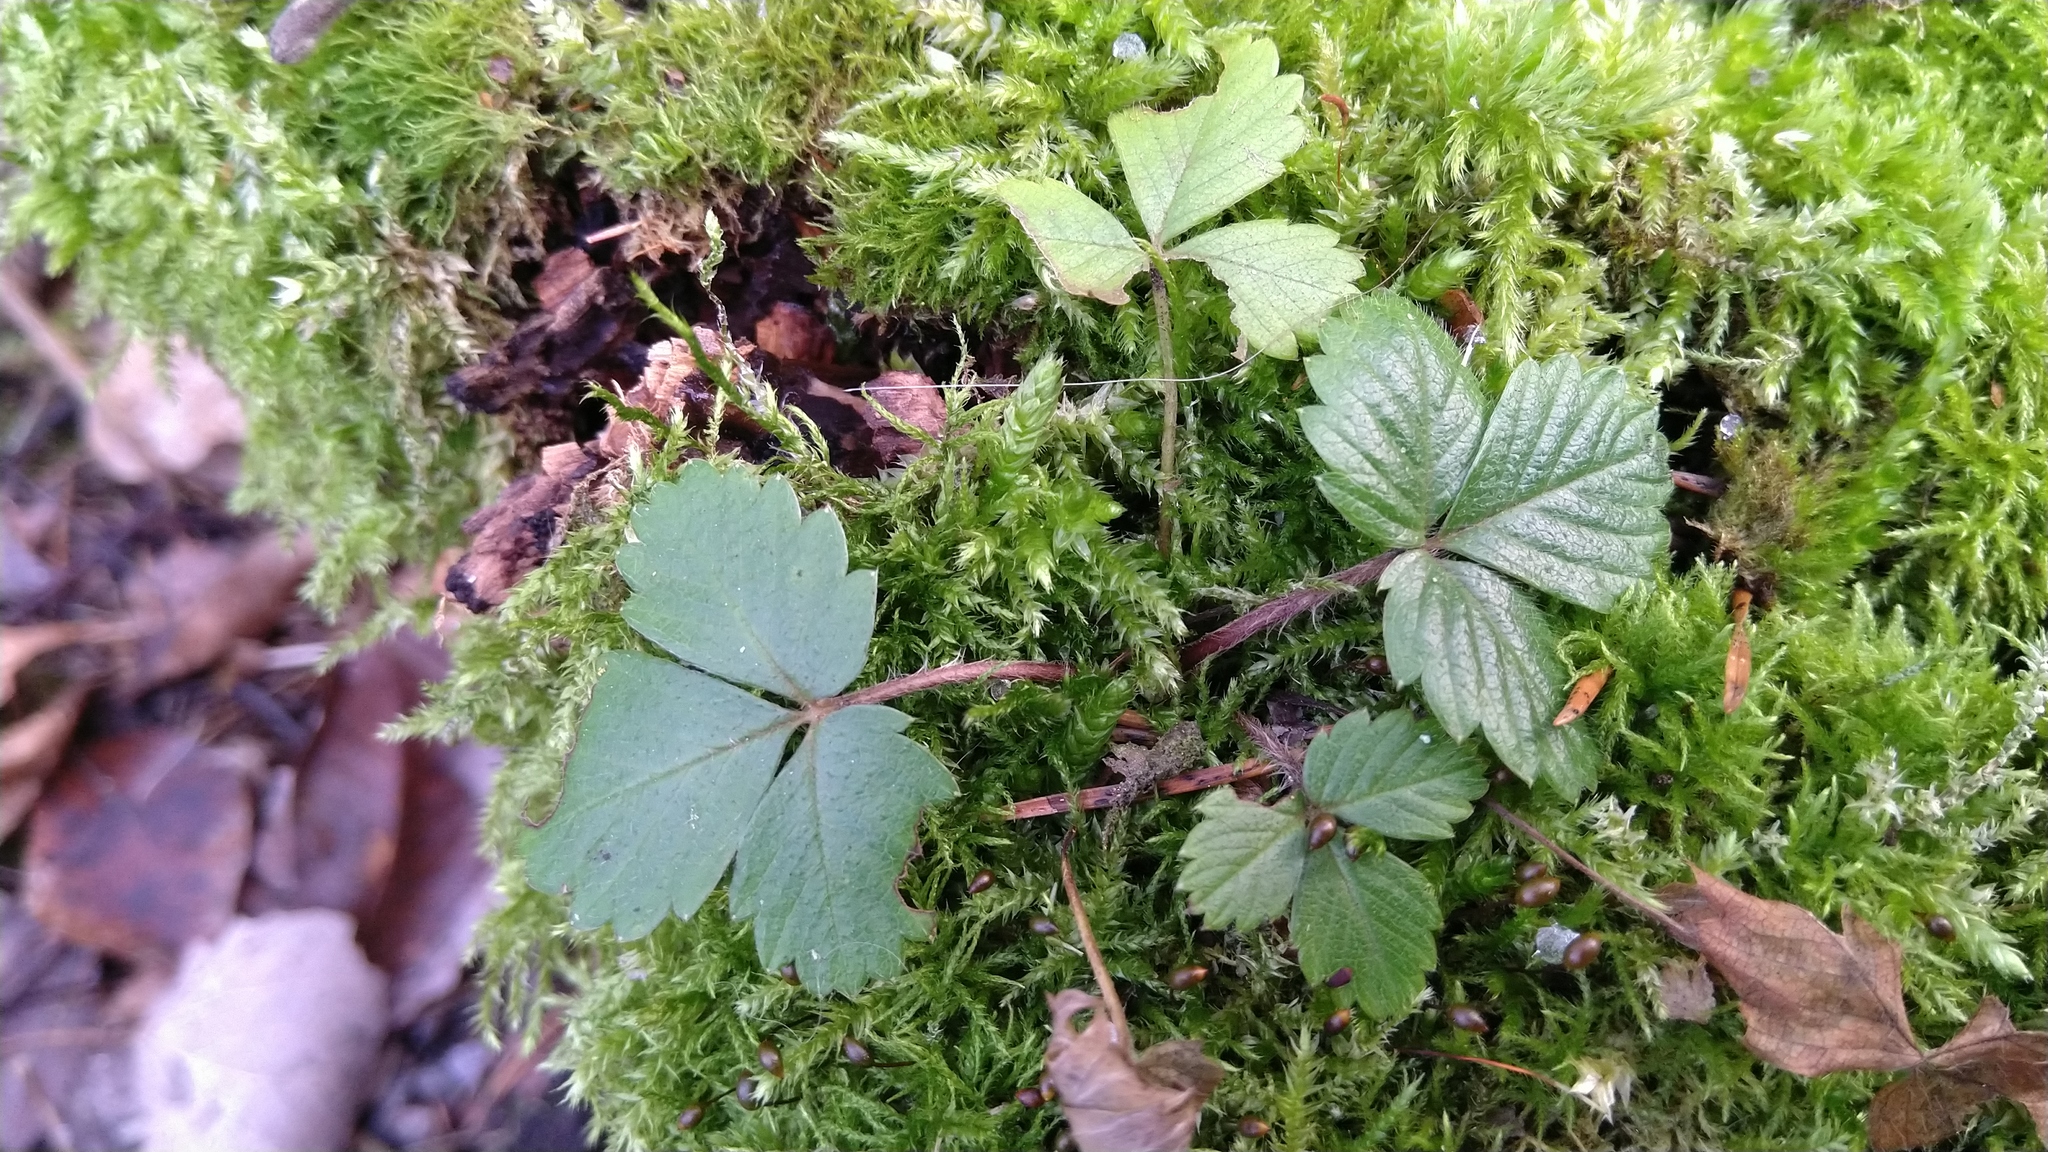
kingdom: Plantae
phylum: Tracheophyta
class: Magnoliopsida
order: Rosales
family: Rosaceae
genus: Fragaria
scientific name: Fragaria vesca
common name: Wild strawberry
